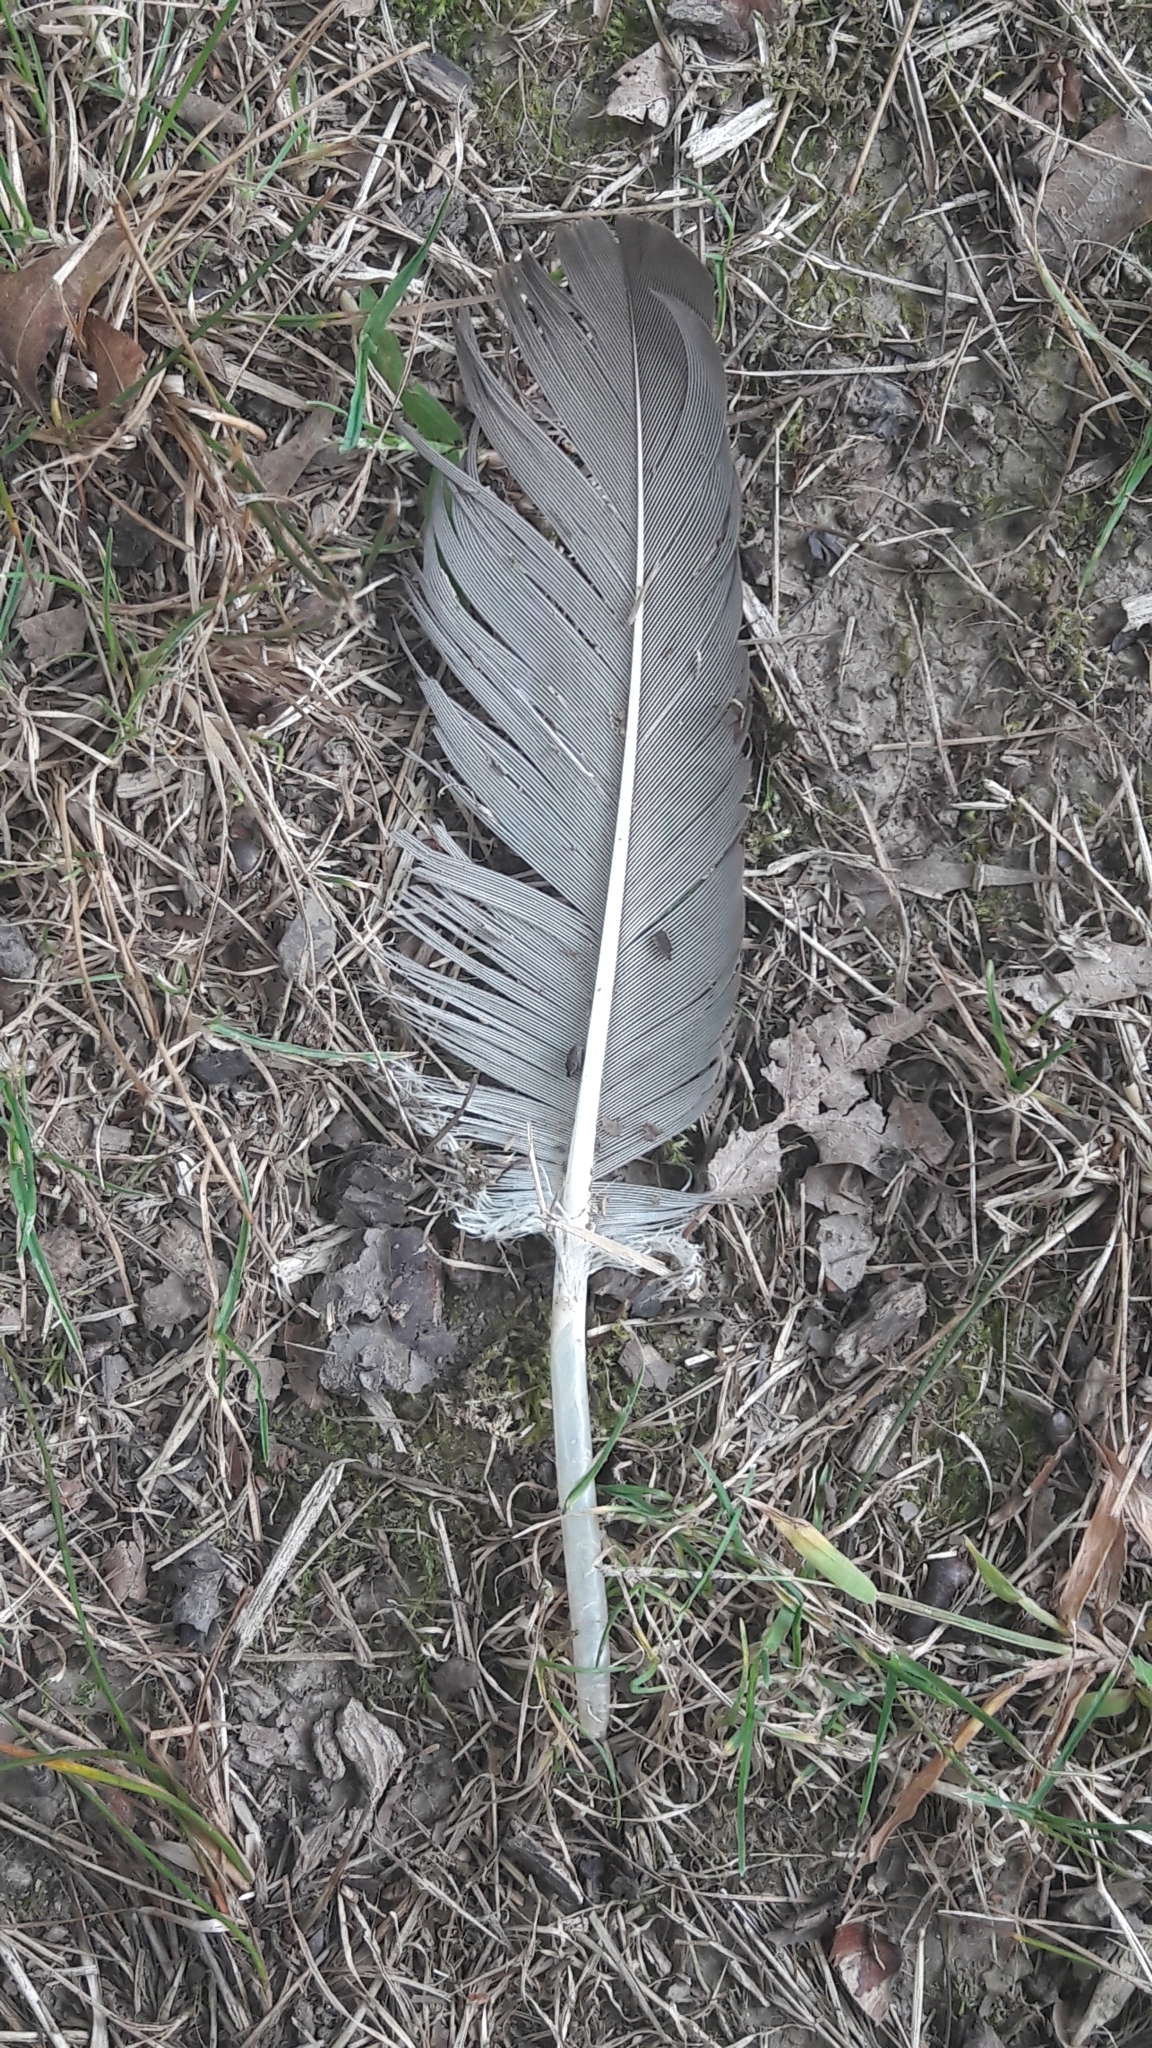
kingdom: Animalia
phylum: Chordata
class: Aves
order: Accipitriformes
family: Cathartidae
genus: Cathartes
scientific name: Cathartes aura
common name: Turkey vulture
